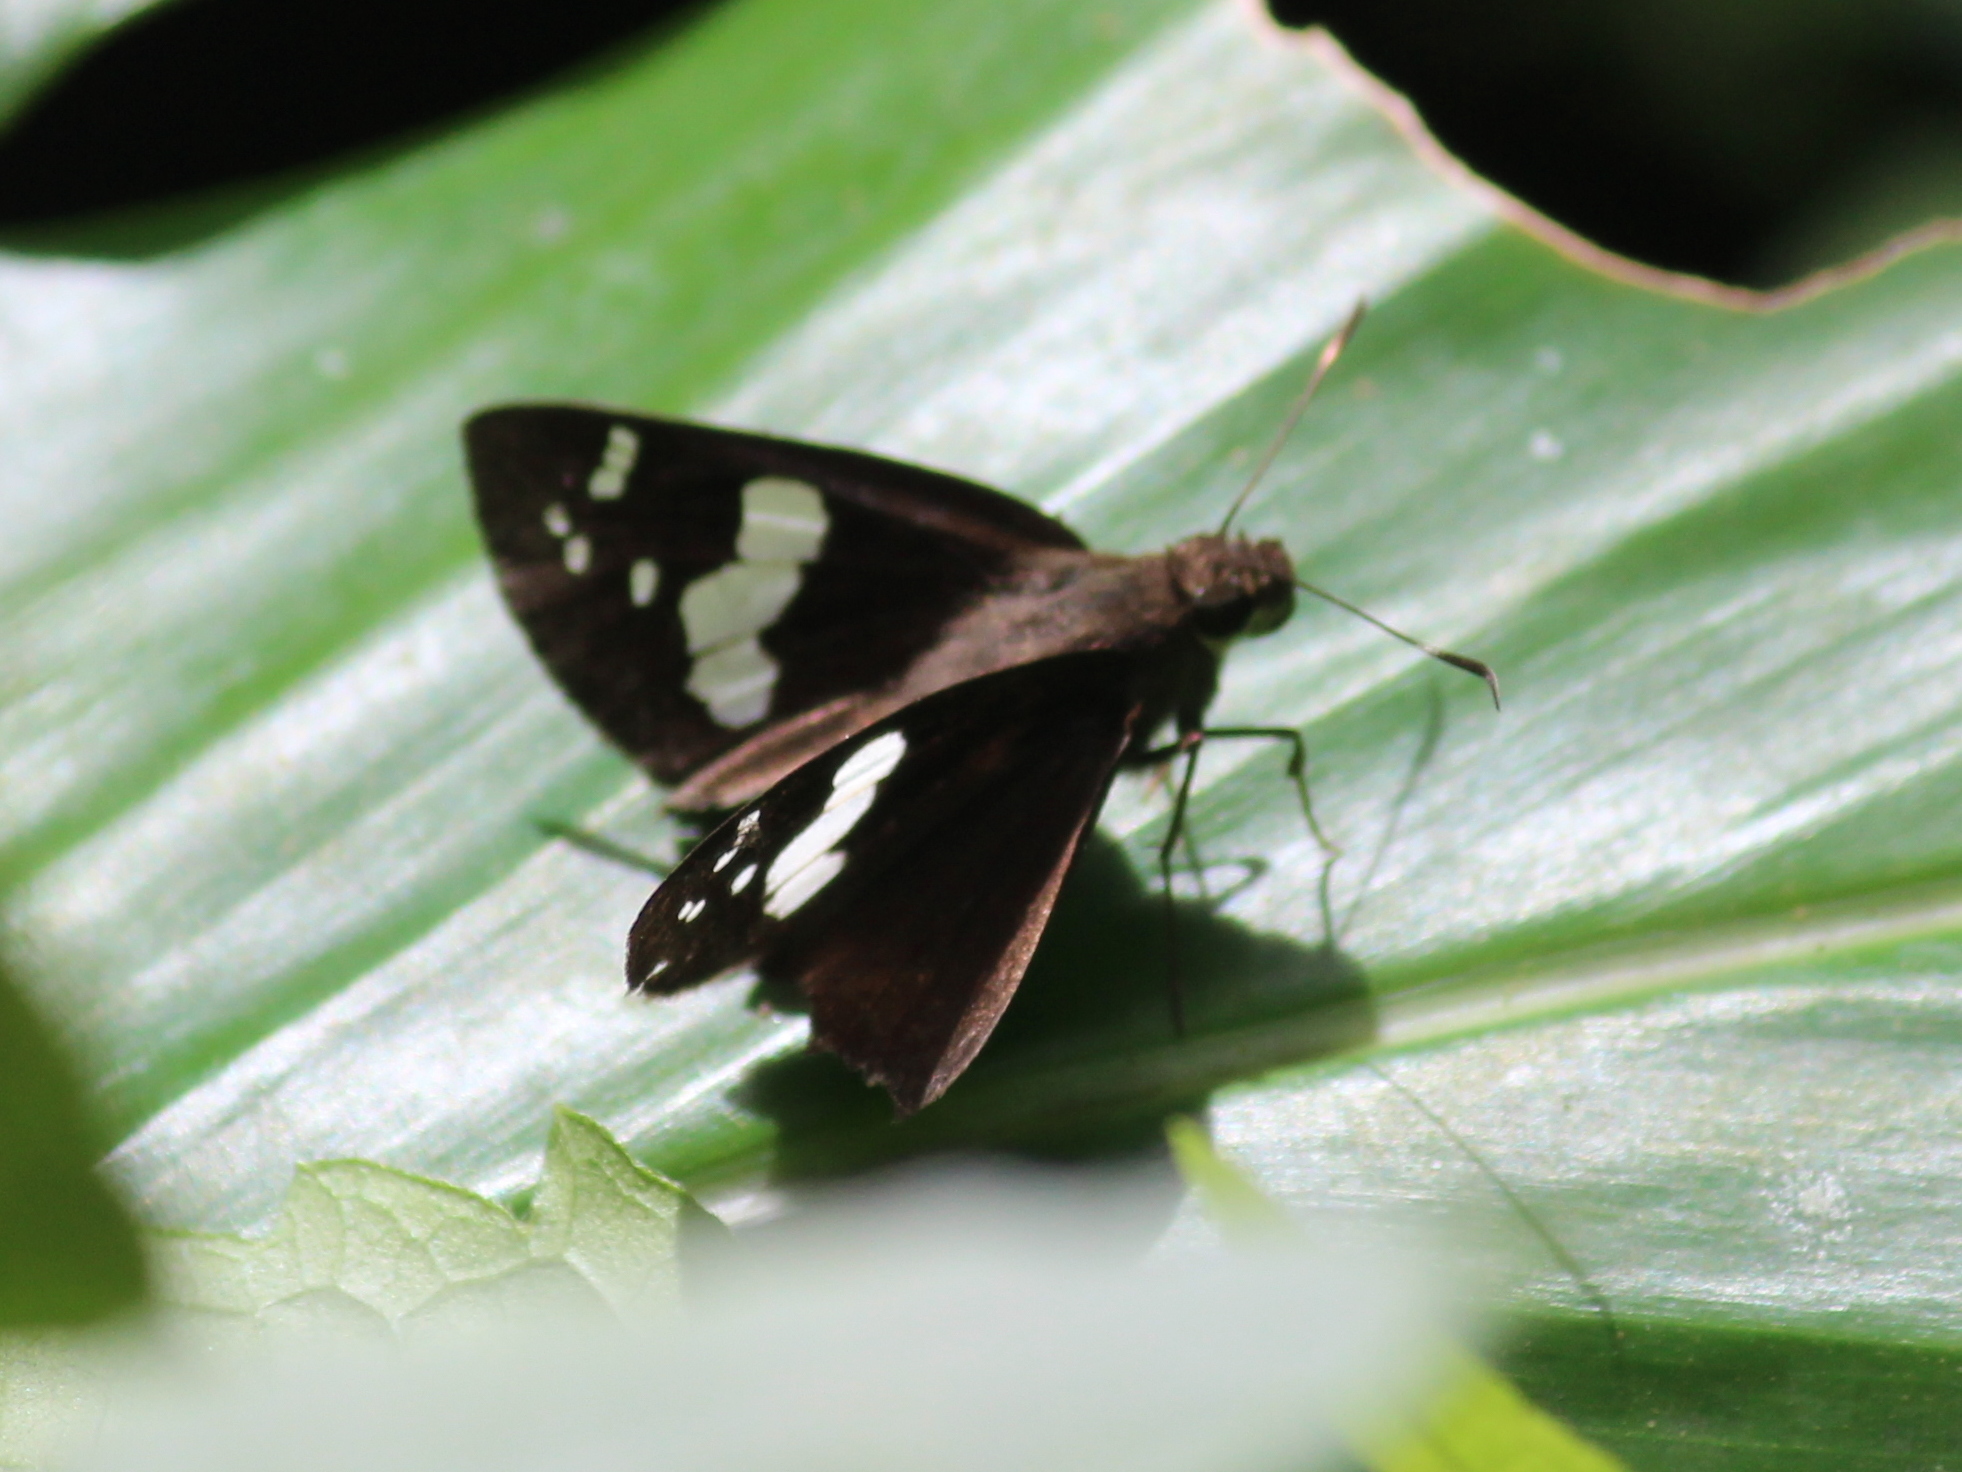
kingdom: Animalia
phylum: Arthropoda
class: Insecta
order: Lepidoptera
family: Hesperiidae
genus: Notocrypta
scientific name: Notocrypta curvifascia
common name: Restricted demon
